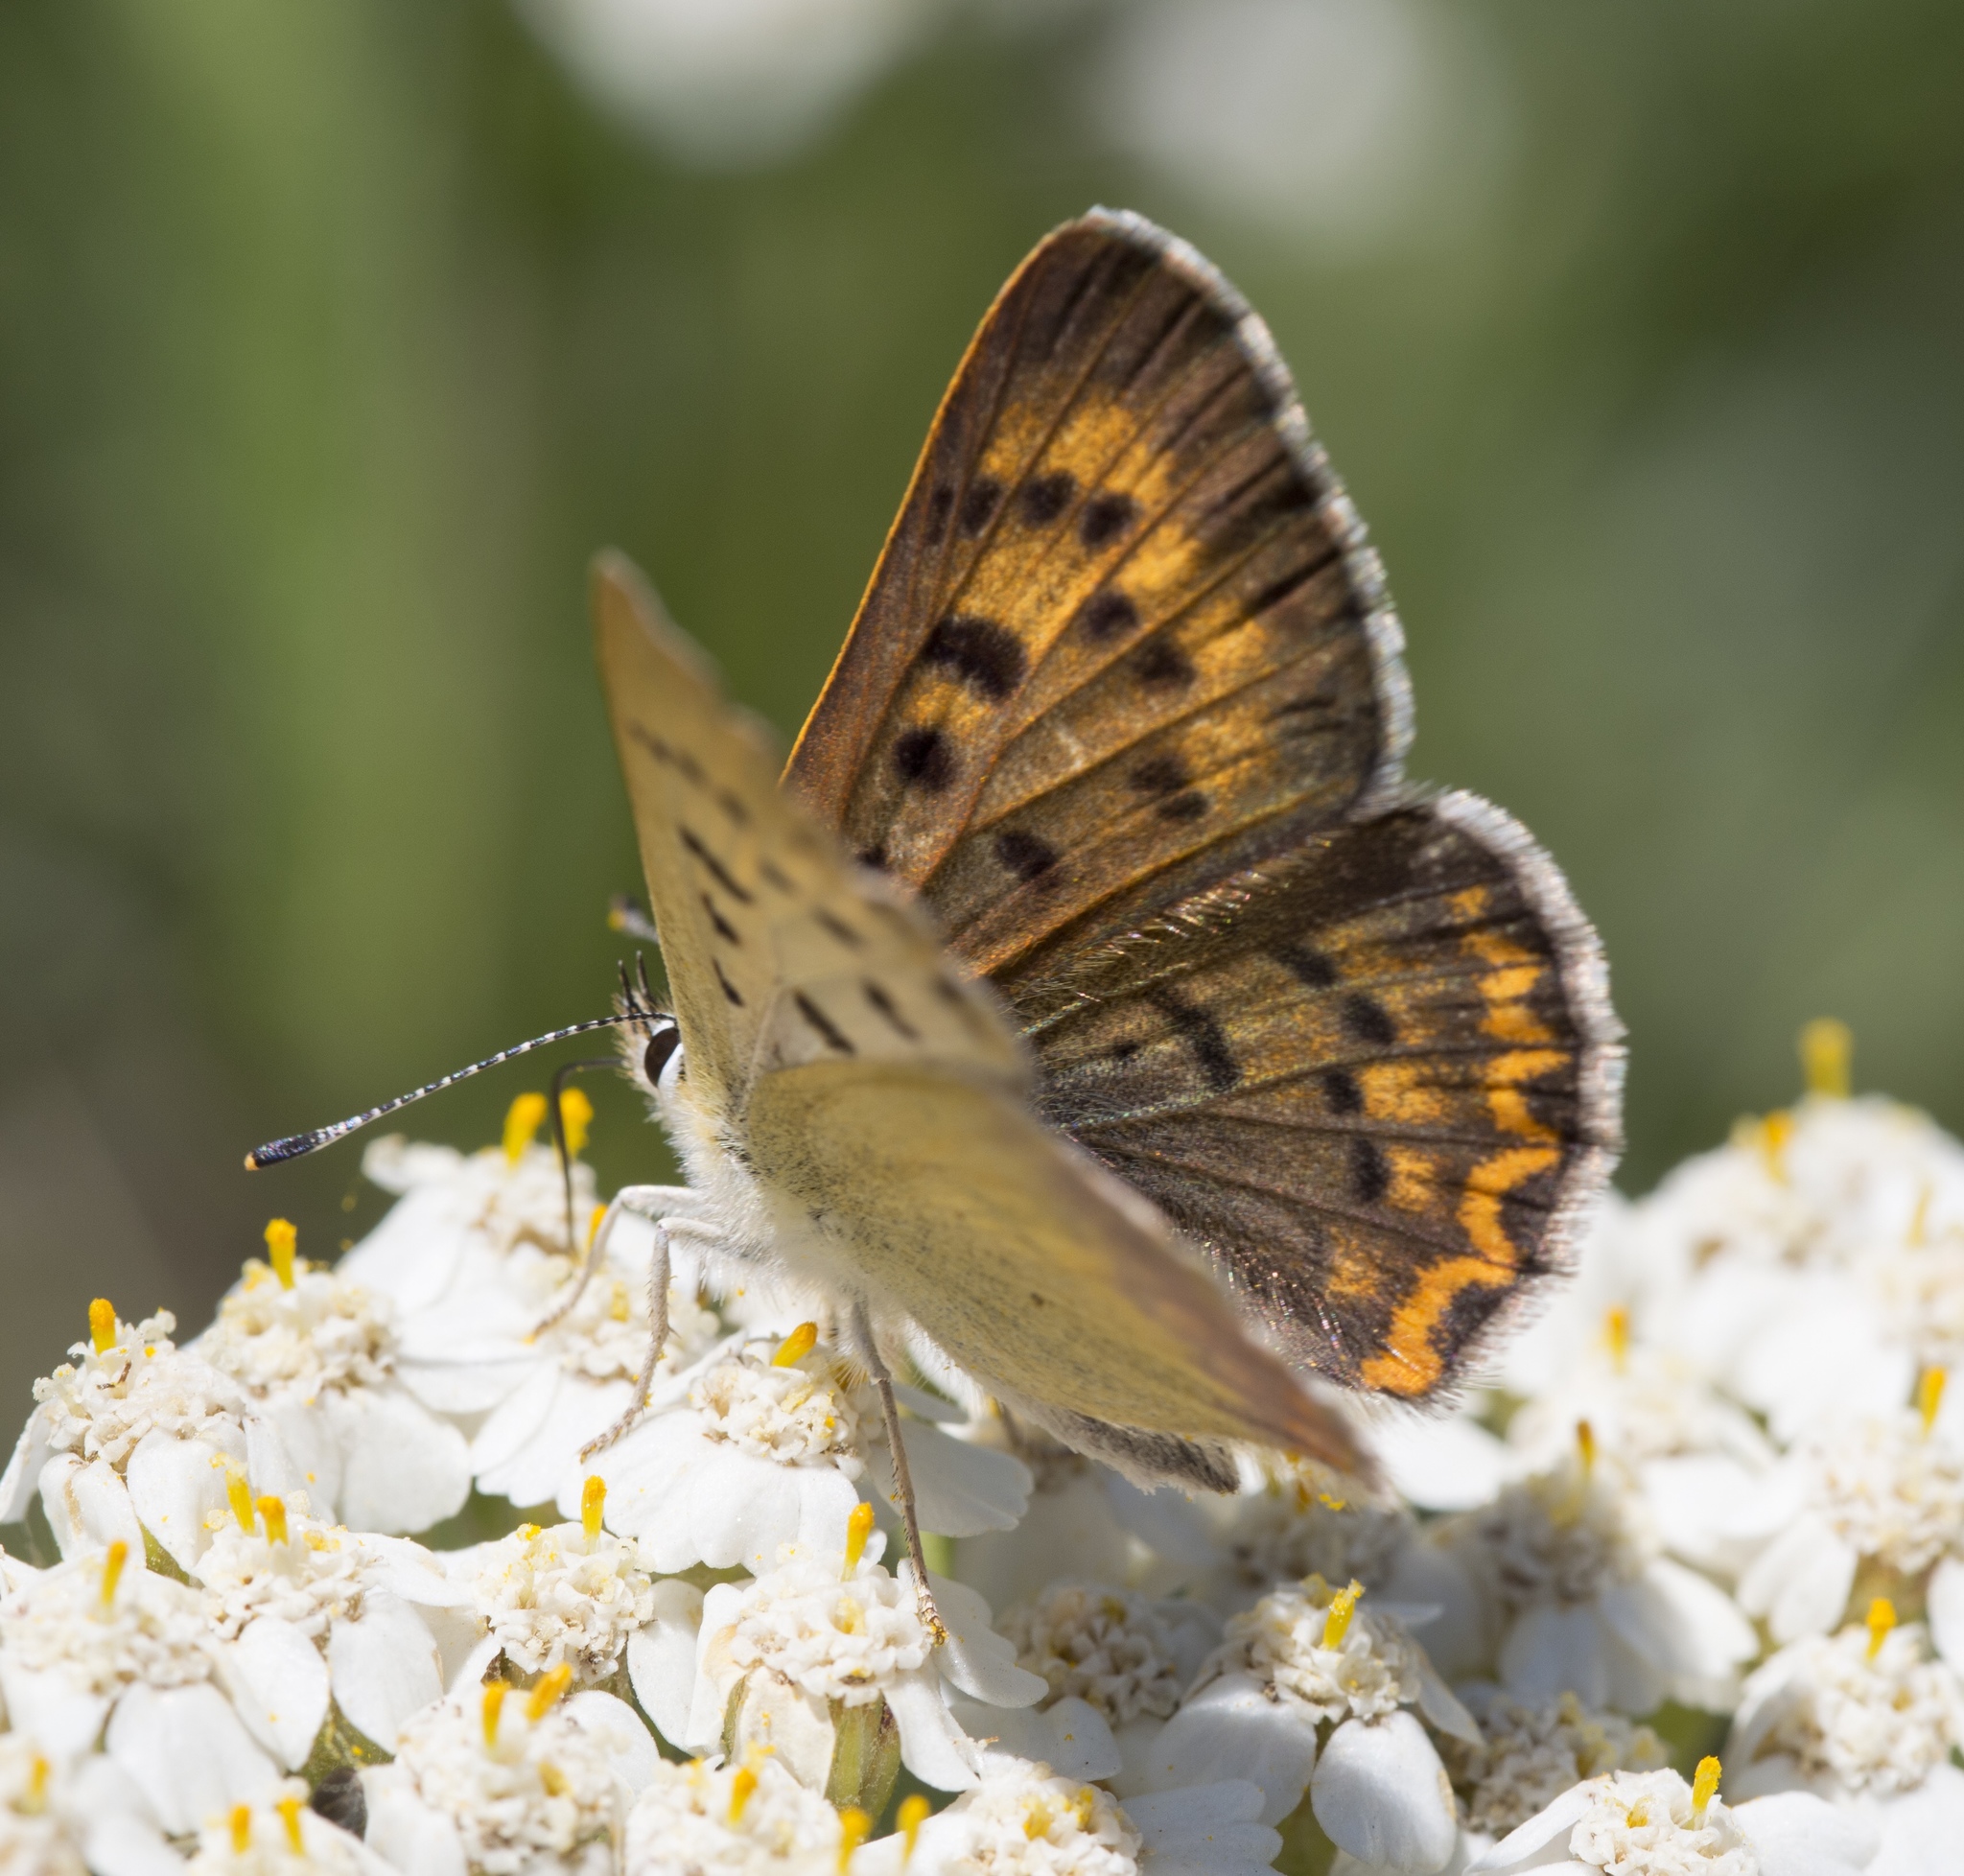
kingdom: Animalia
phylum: Arthropoda
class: Insecta
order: Lepidoptera
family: Lycaenidae
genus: Tharsalea
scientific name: Tharsalea nivalis
